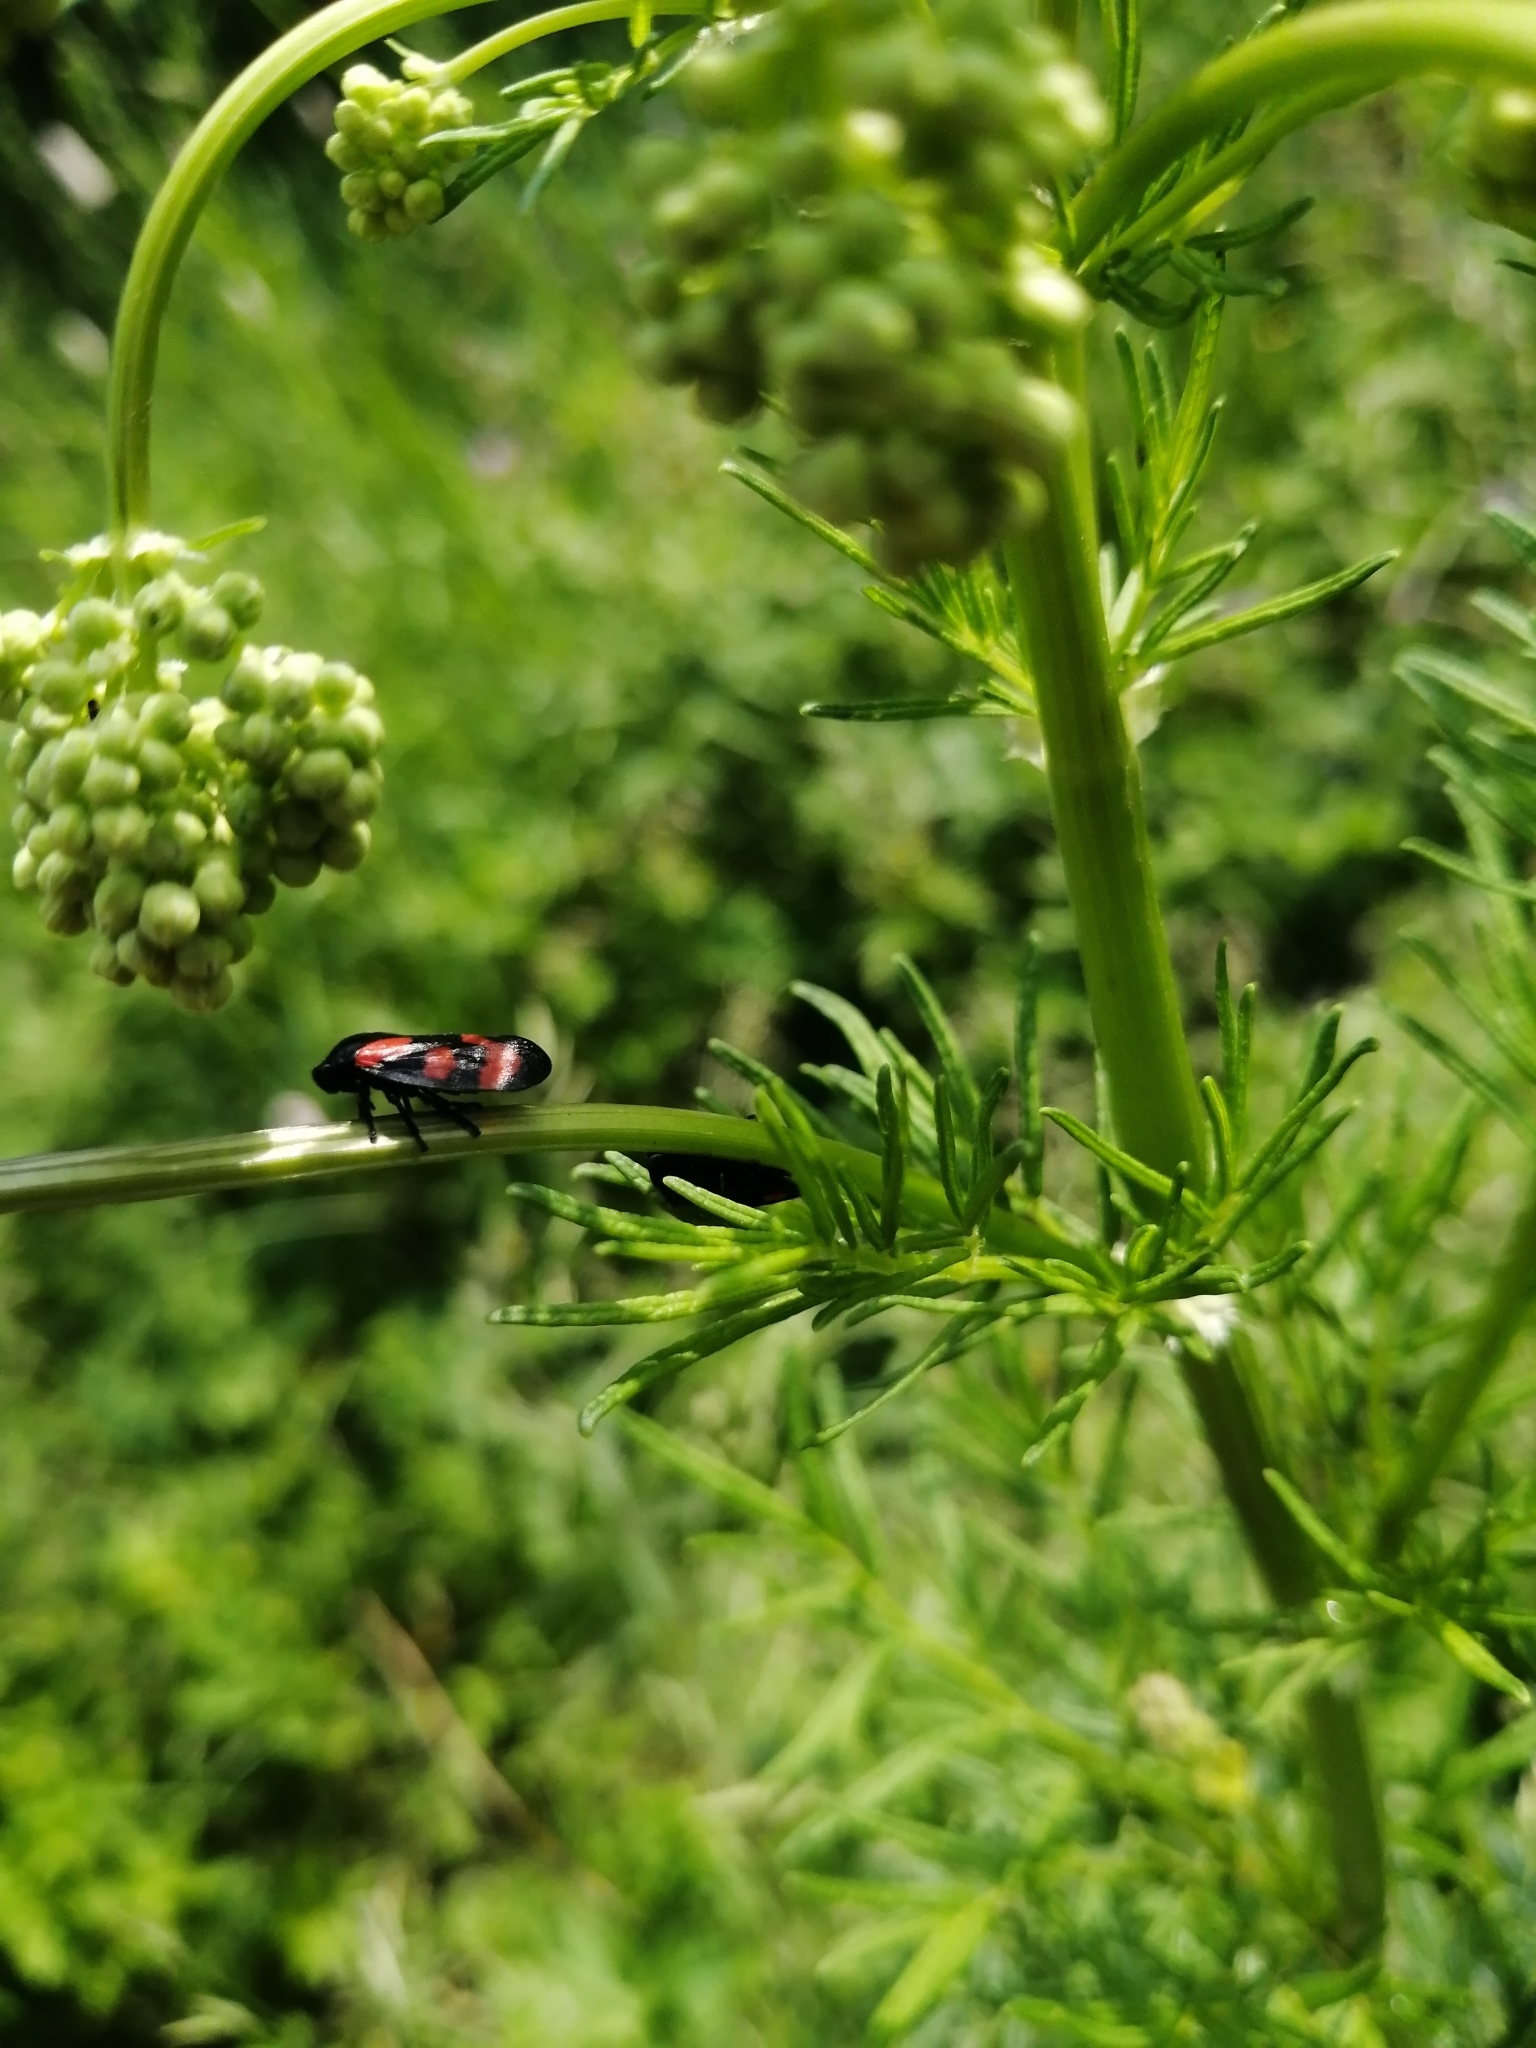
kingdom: Animalia
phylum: Arthropoda
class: Insecta
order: Hemiptera
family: Cercopidae
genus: Cercopis
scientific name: Cercopis vulnerata
